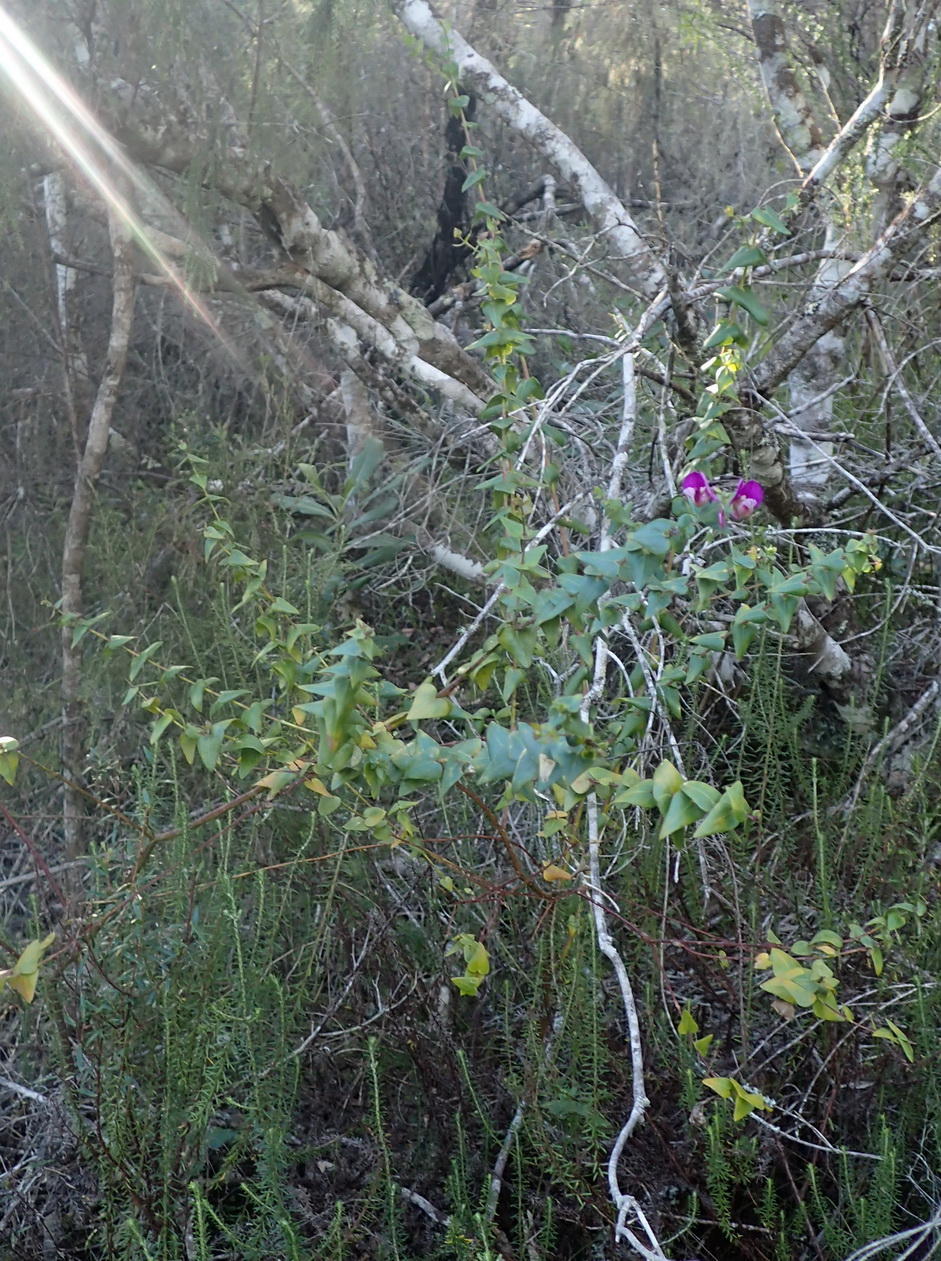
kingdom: Plantae
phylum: Tracheophyta
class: Magnoliopsida
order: Fabales
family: Polygalaceae
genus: Polygala
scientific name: Polygala fruticosa
